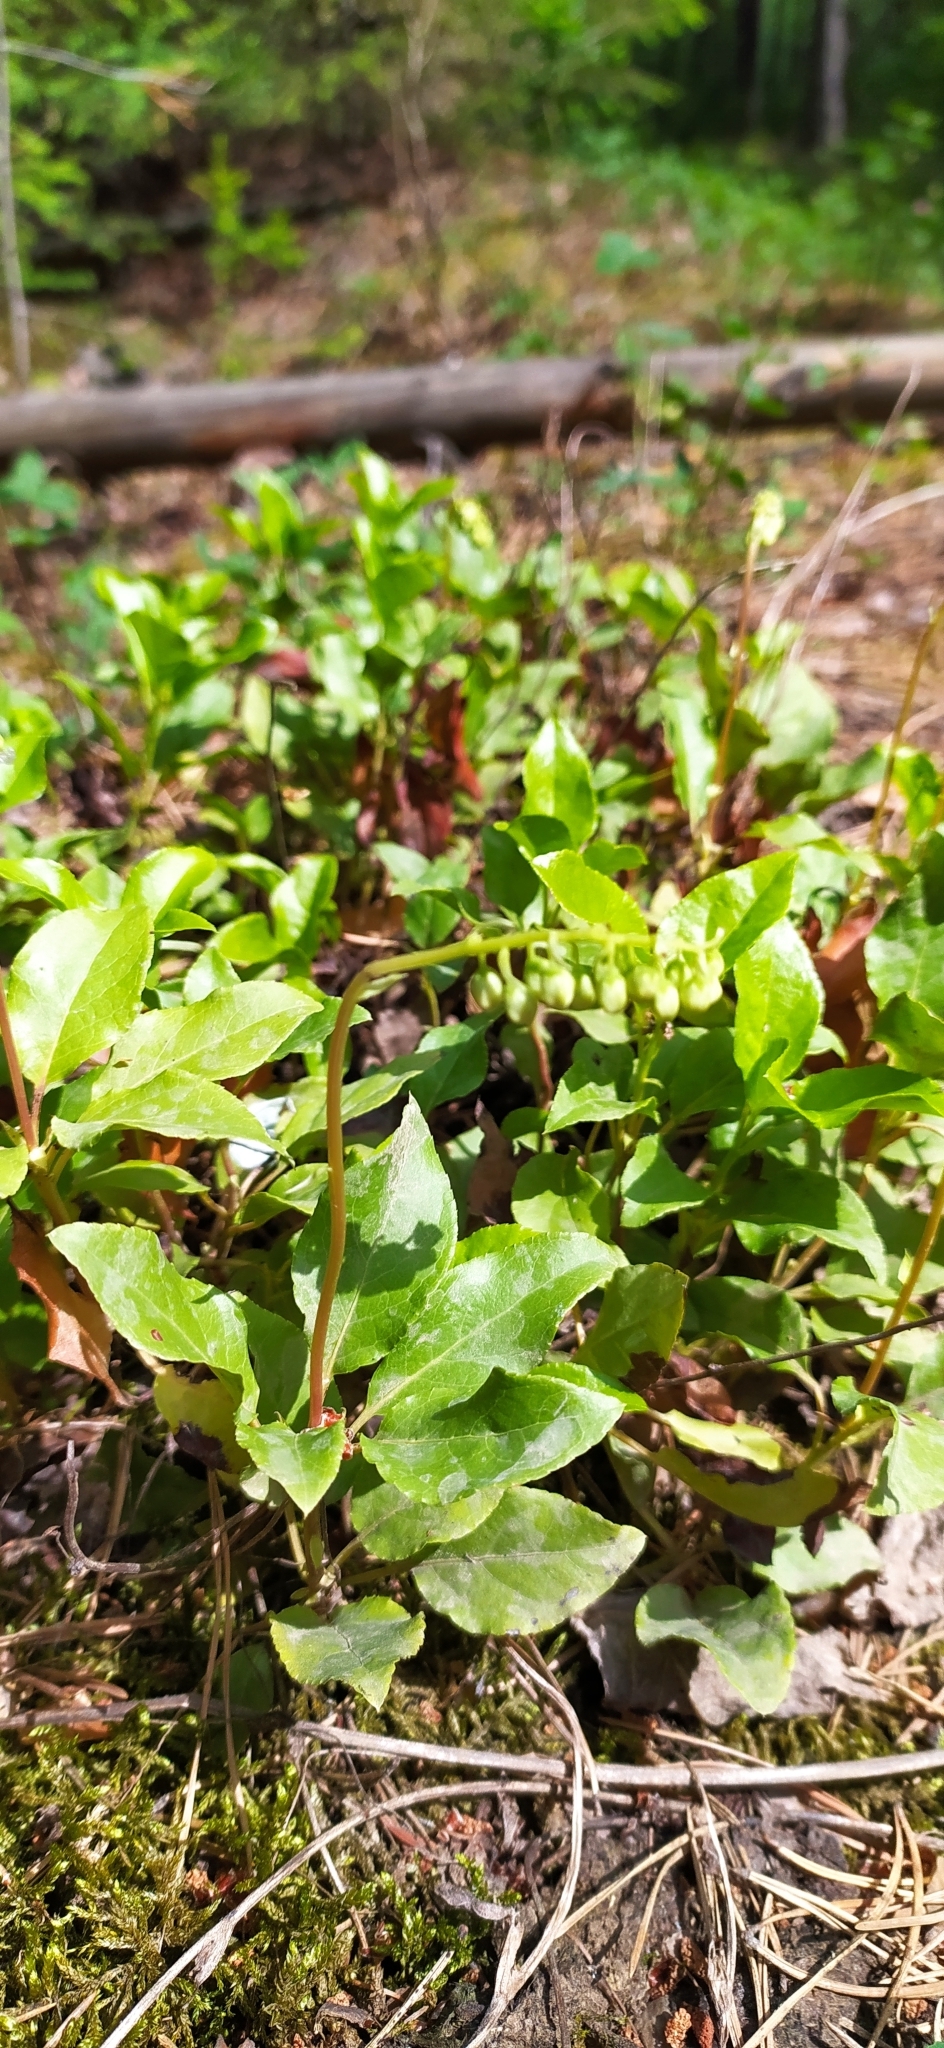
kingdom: Plantae
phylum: Tracheophyta
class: Magnoliopsida
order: Ericales
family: Ericaceae
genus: Orthilia
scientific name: Orthilia secunda
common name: One-sided orthilia
